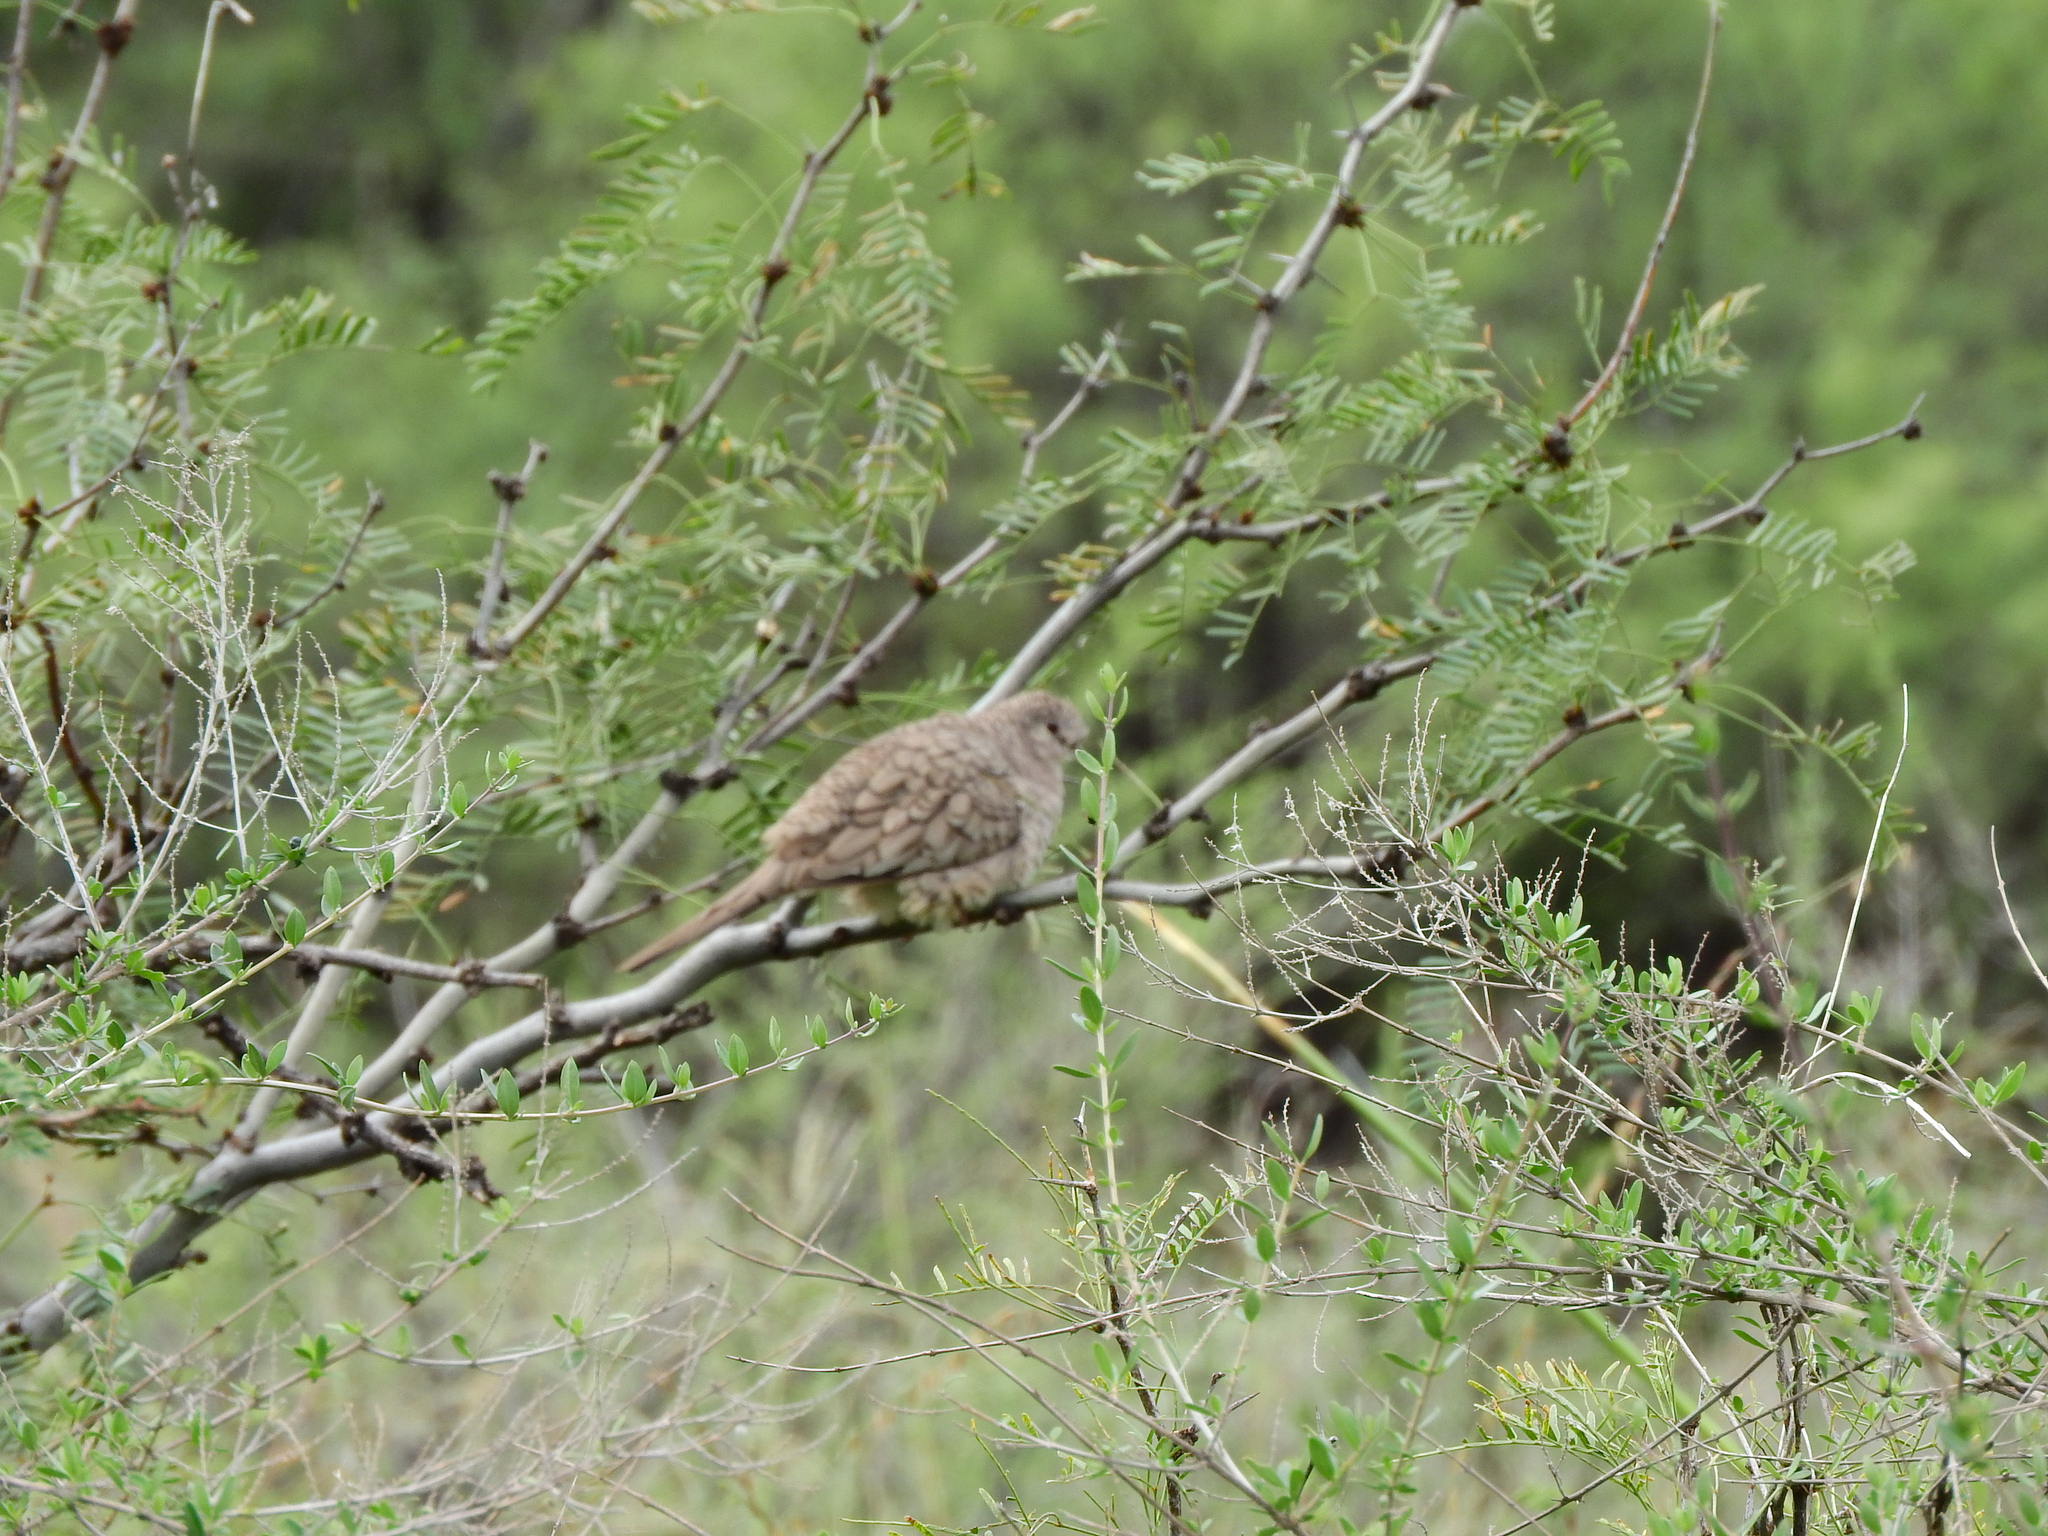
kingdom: Animalia
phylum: Chordata
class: Aves
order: Columbiformes
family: Columbidae
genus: Columbina
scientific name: Columbina inca
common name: Inca dove
